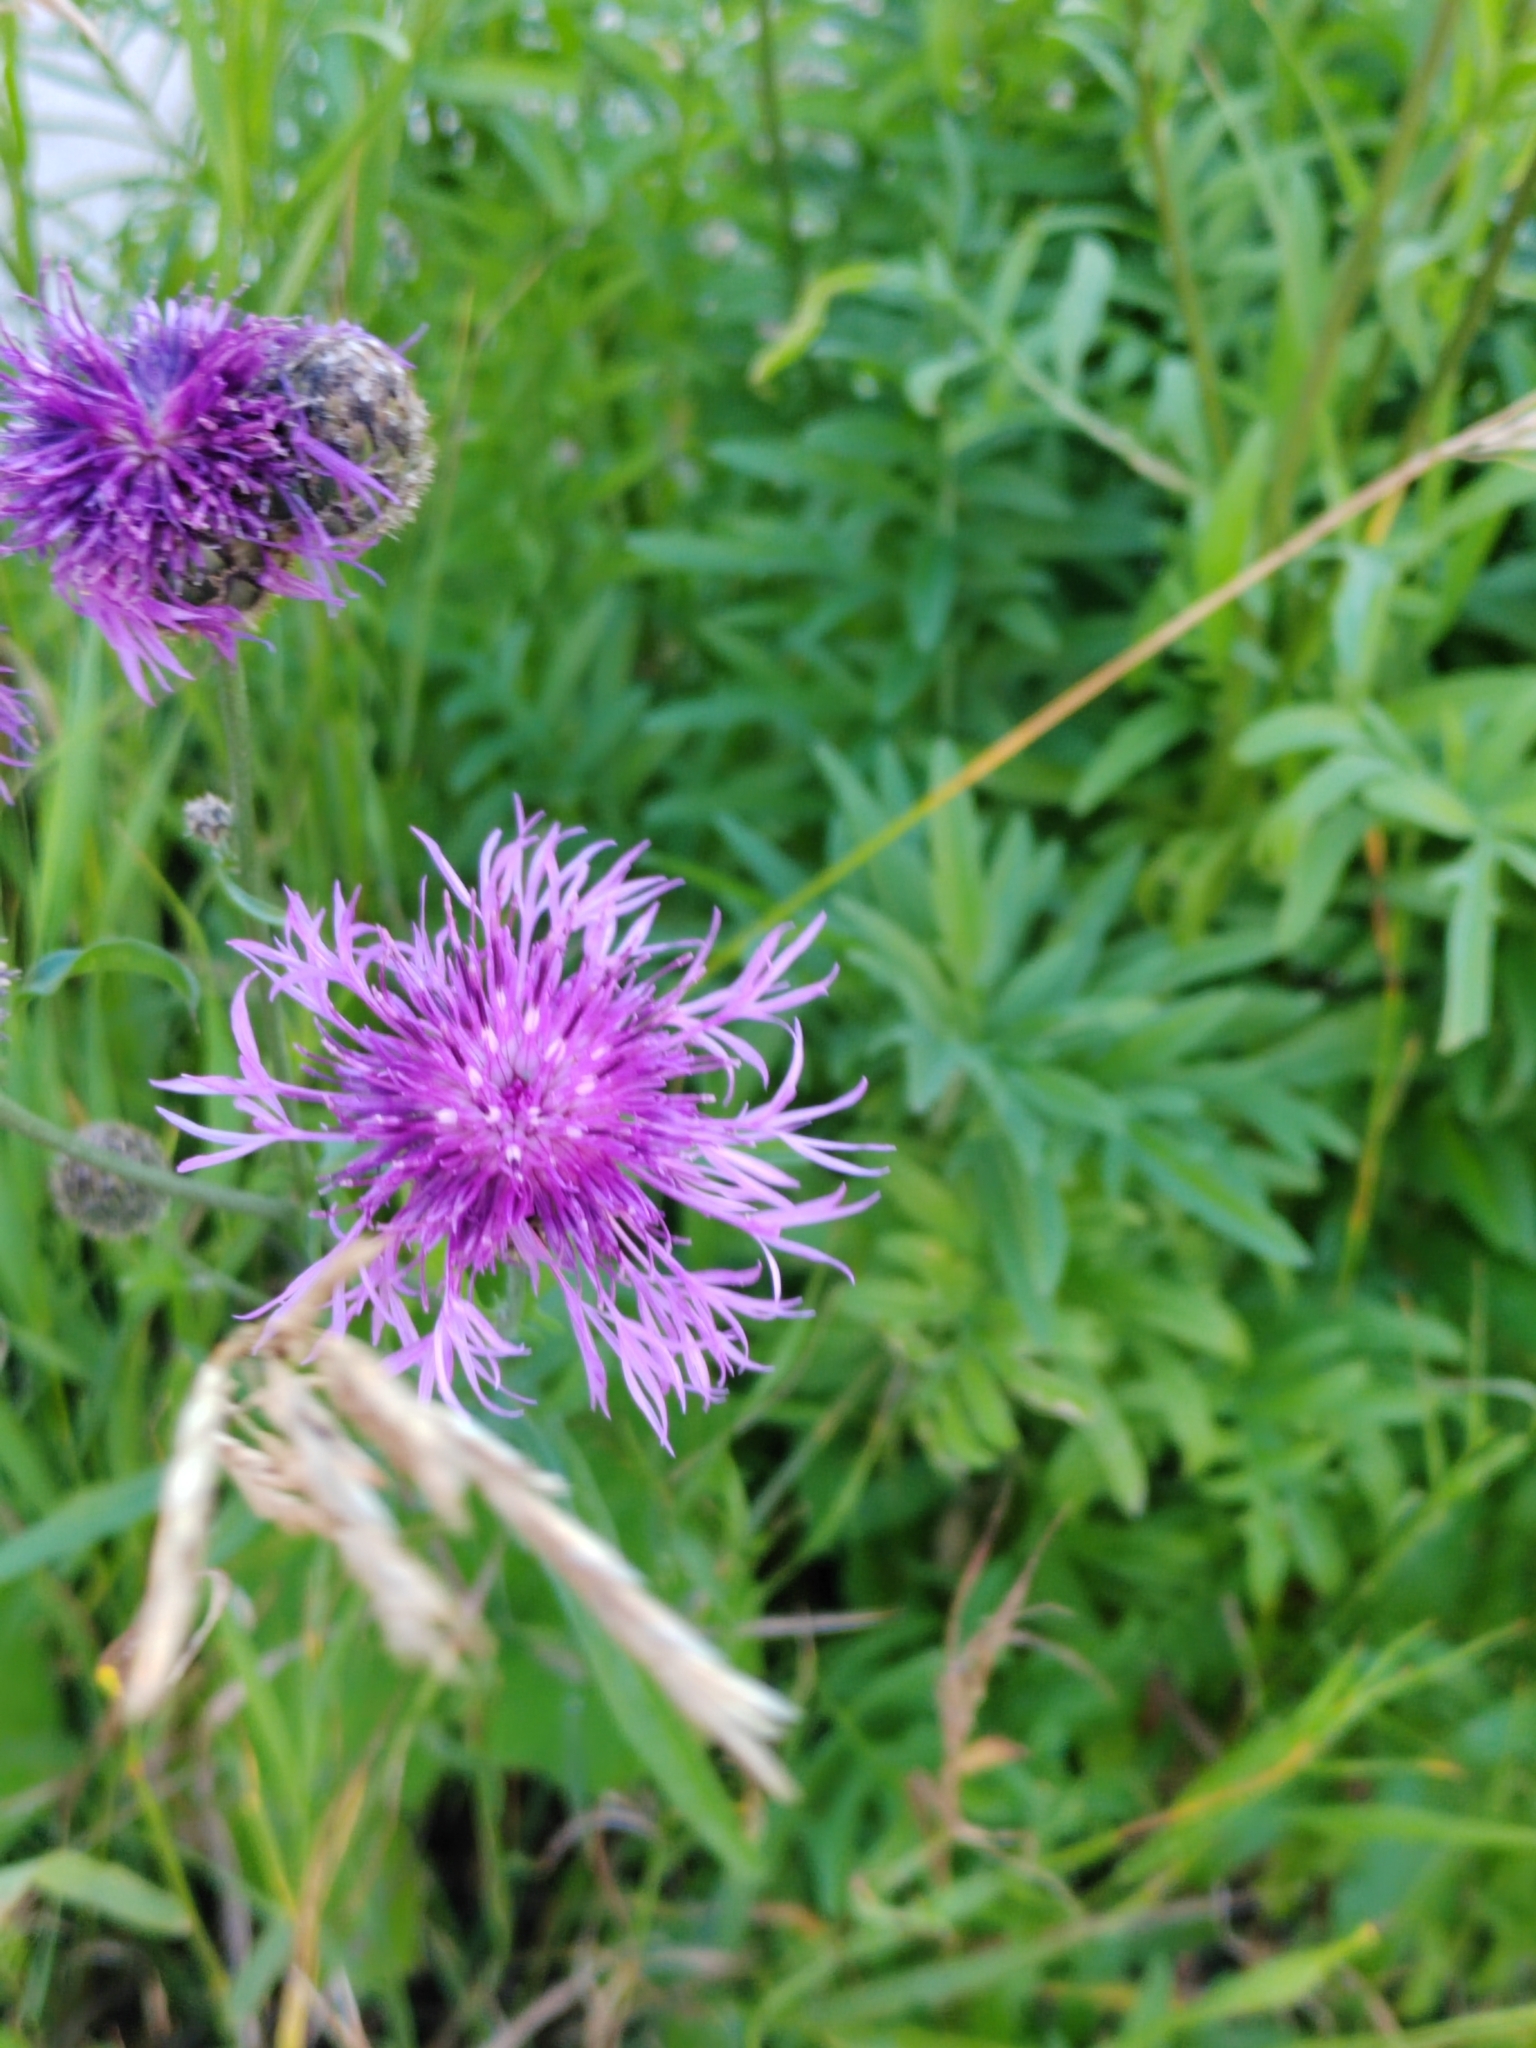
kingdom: Plantae
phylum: Tracheophyta
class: Magnoliopsida
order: Asterales
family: Asteraceae
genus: Centaurea
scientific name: Centaurea scabiosa
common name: Greater knapweed
